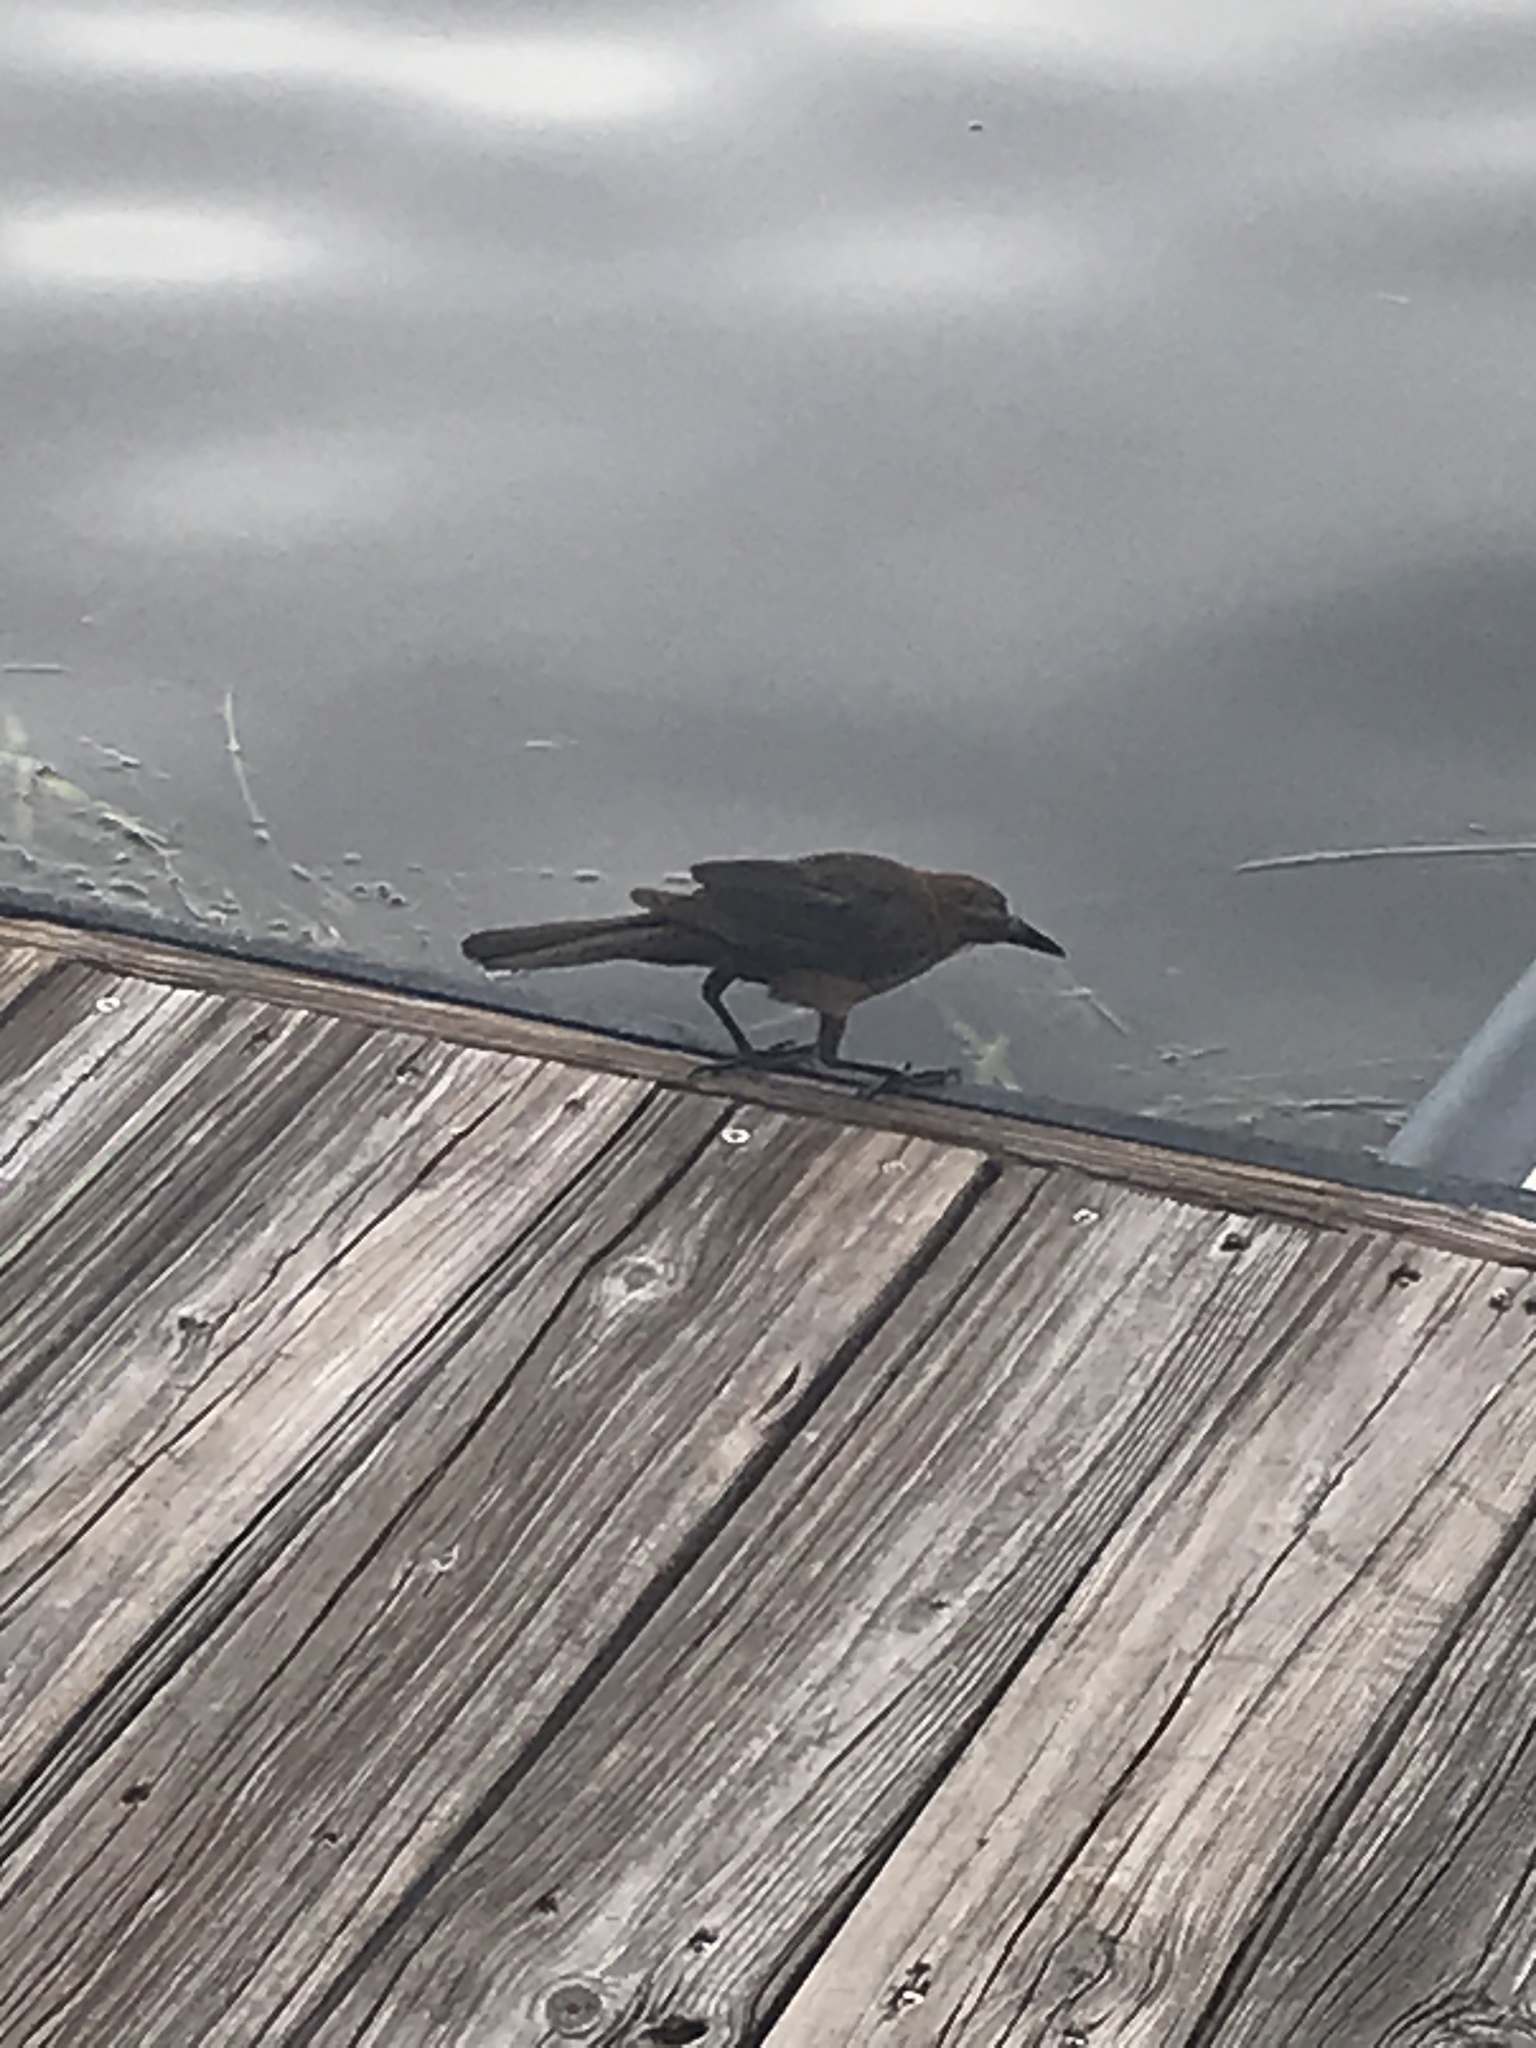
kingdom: Animalia
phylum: Chordata
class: Aves
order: Passeriformes
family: Icteridae
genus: Quiscalus
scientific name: Quiscalus major
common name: Boat-tailed grackle
